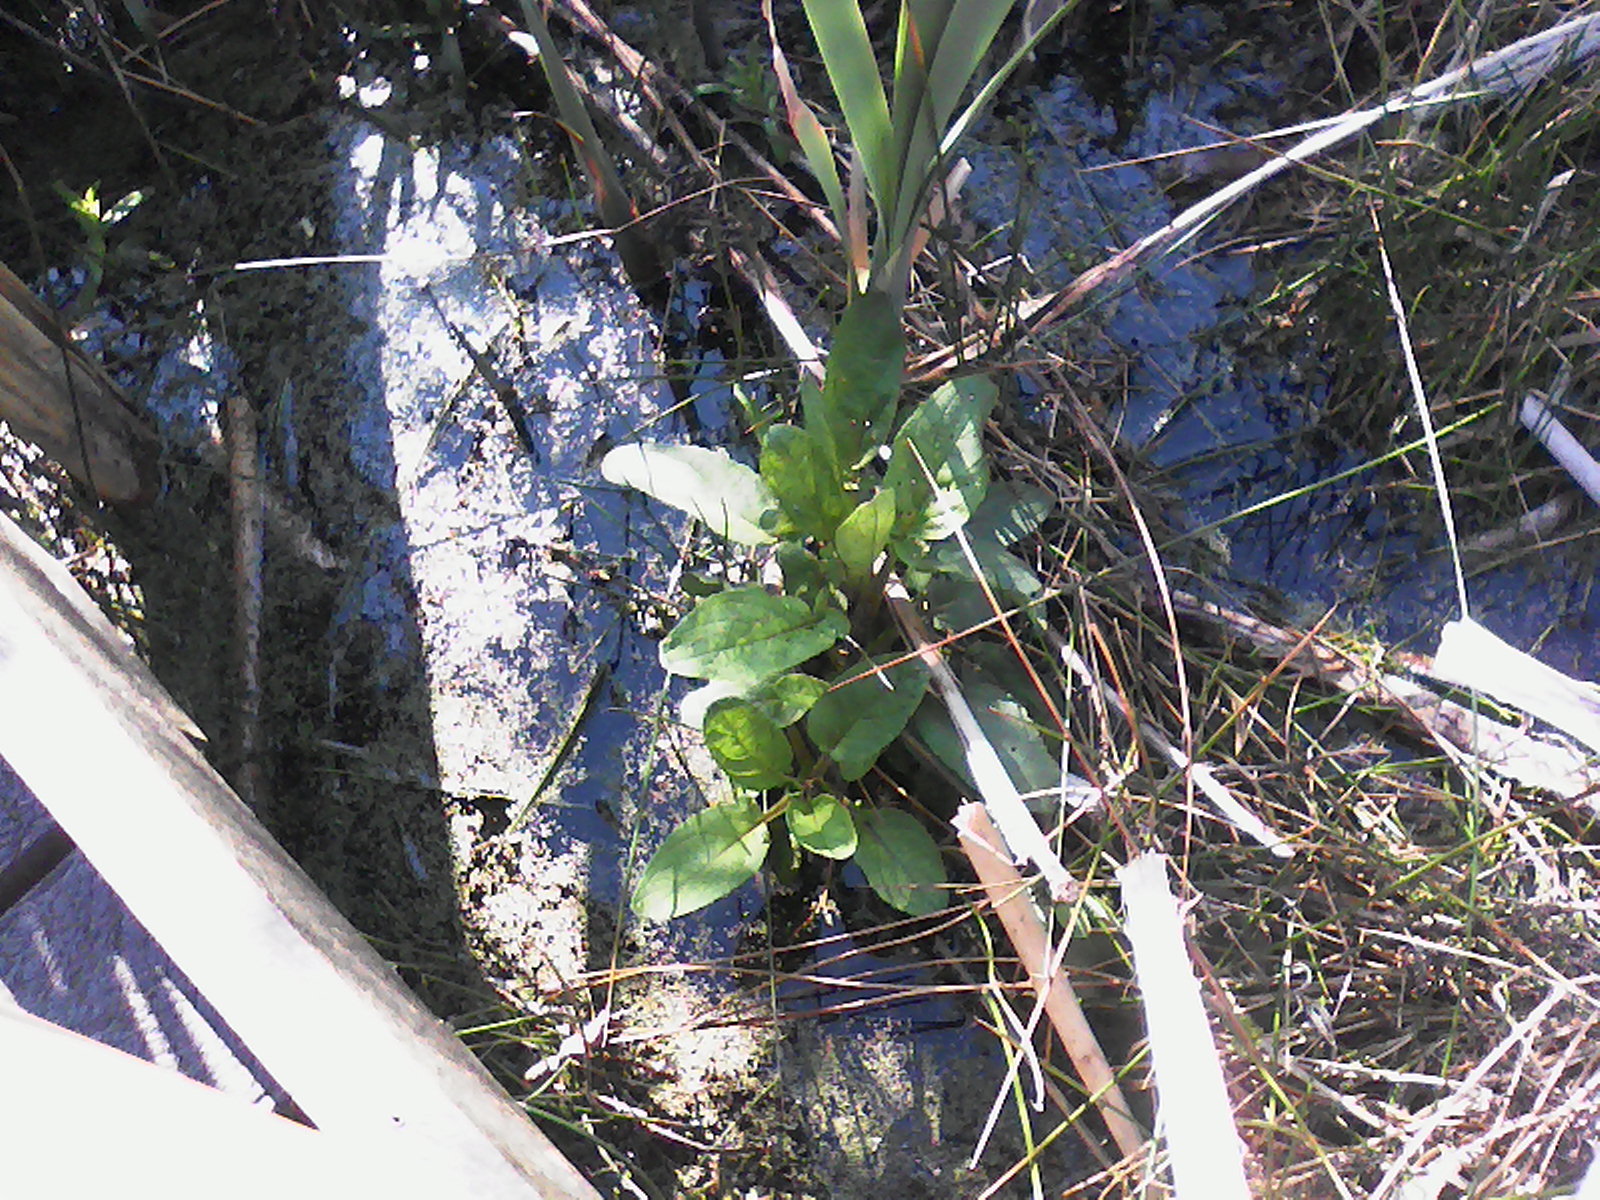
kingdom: Plantae
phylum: Tracheophyta
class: Magnoliopsida
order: Lamiales
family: Scrophulariaceae
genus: Scrophularia
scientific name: Scrophularia auriculata
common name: Water betony
